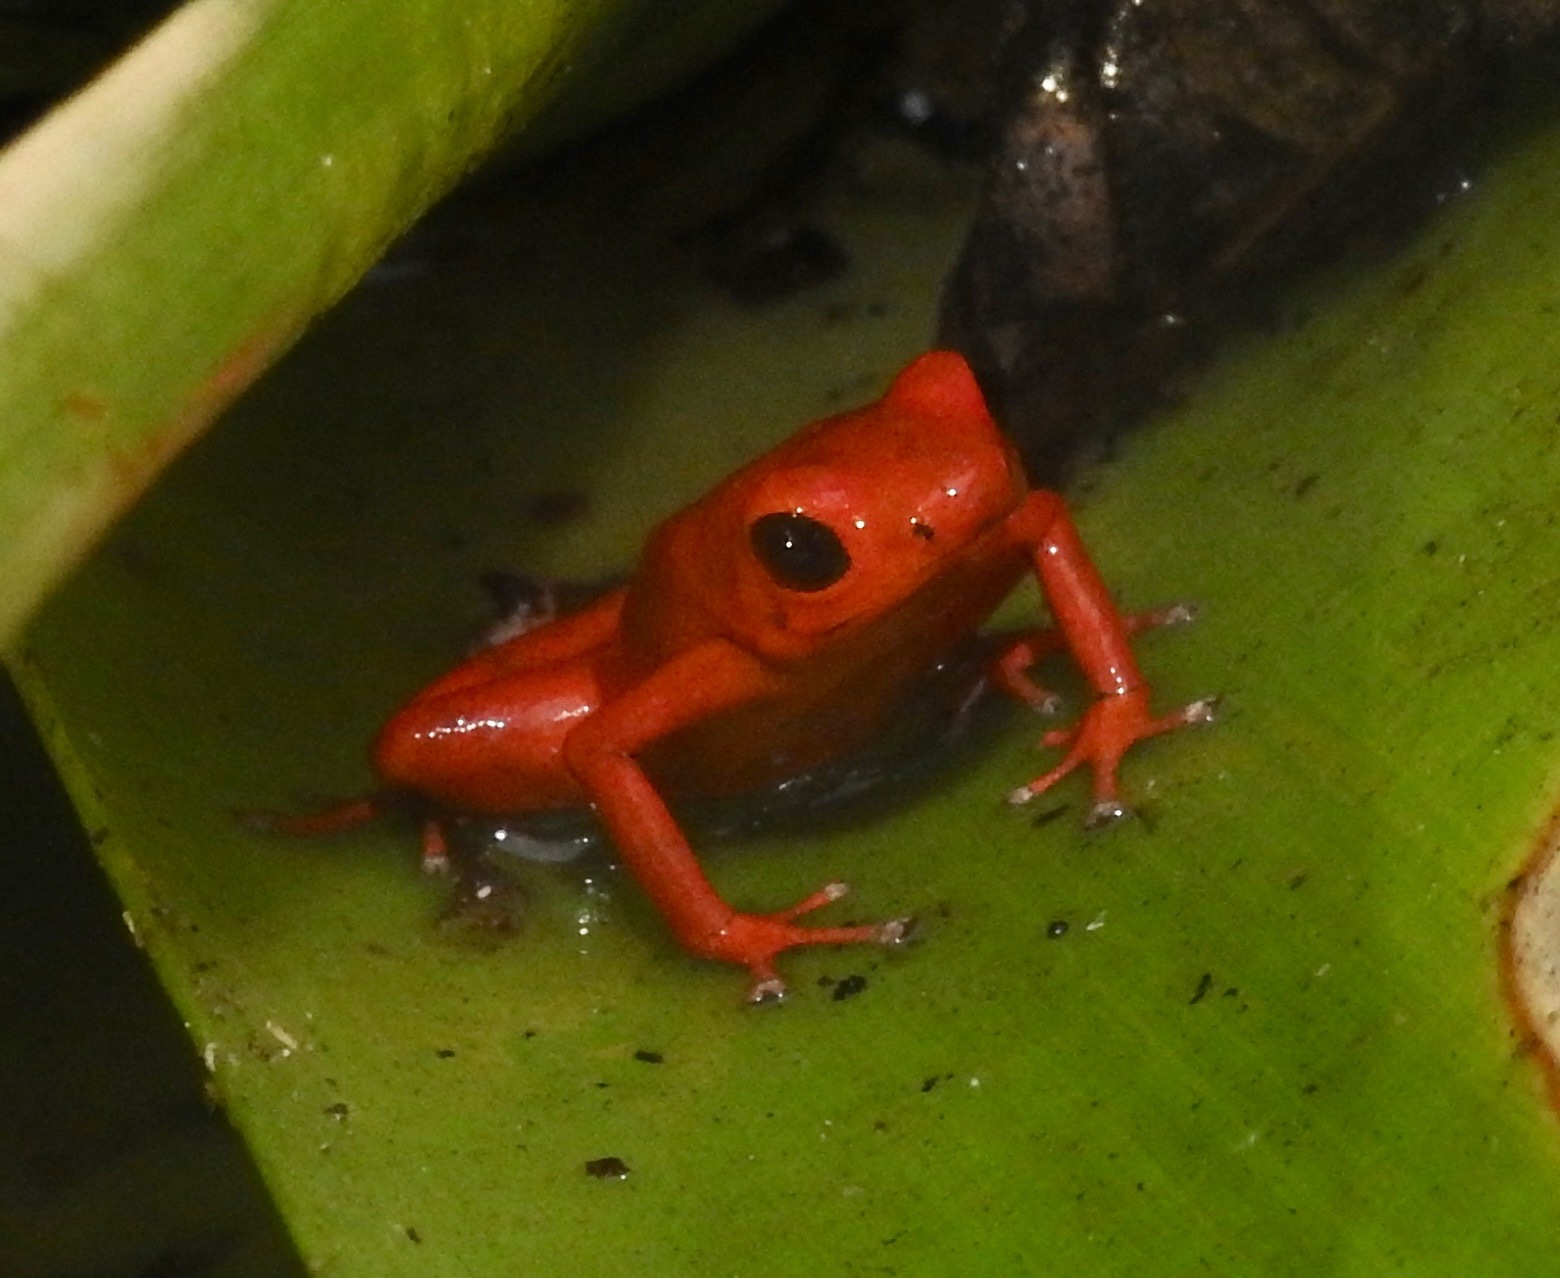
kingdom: Animalia
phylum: Chordata
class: Amphibia
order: Anura
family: Dendrobatidae
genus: Andinobates
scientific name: Andinobates victimatus
